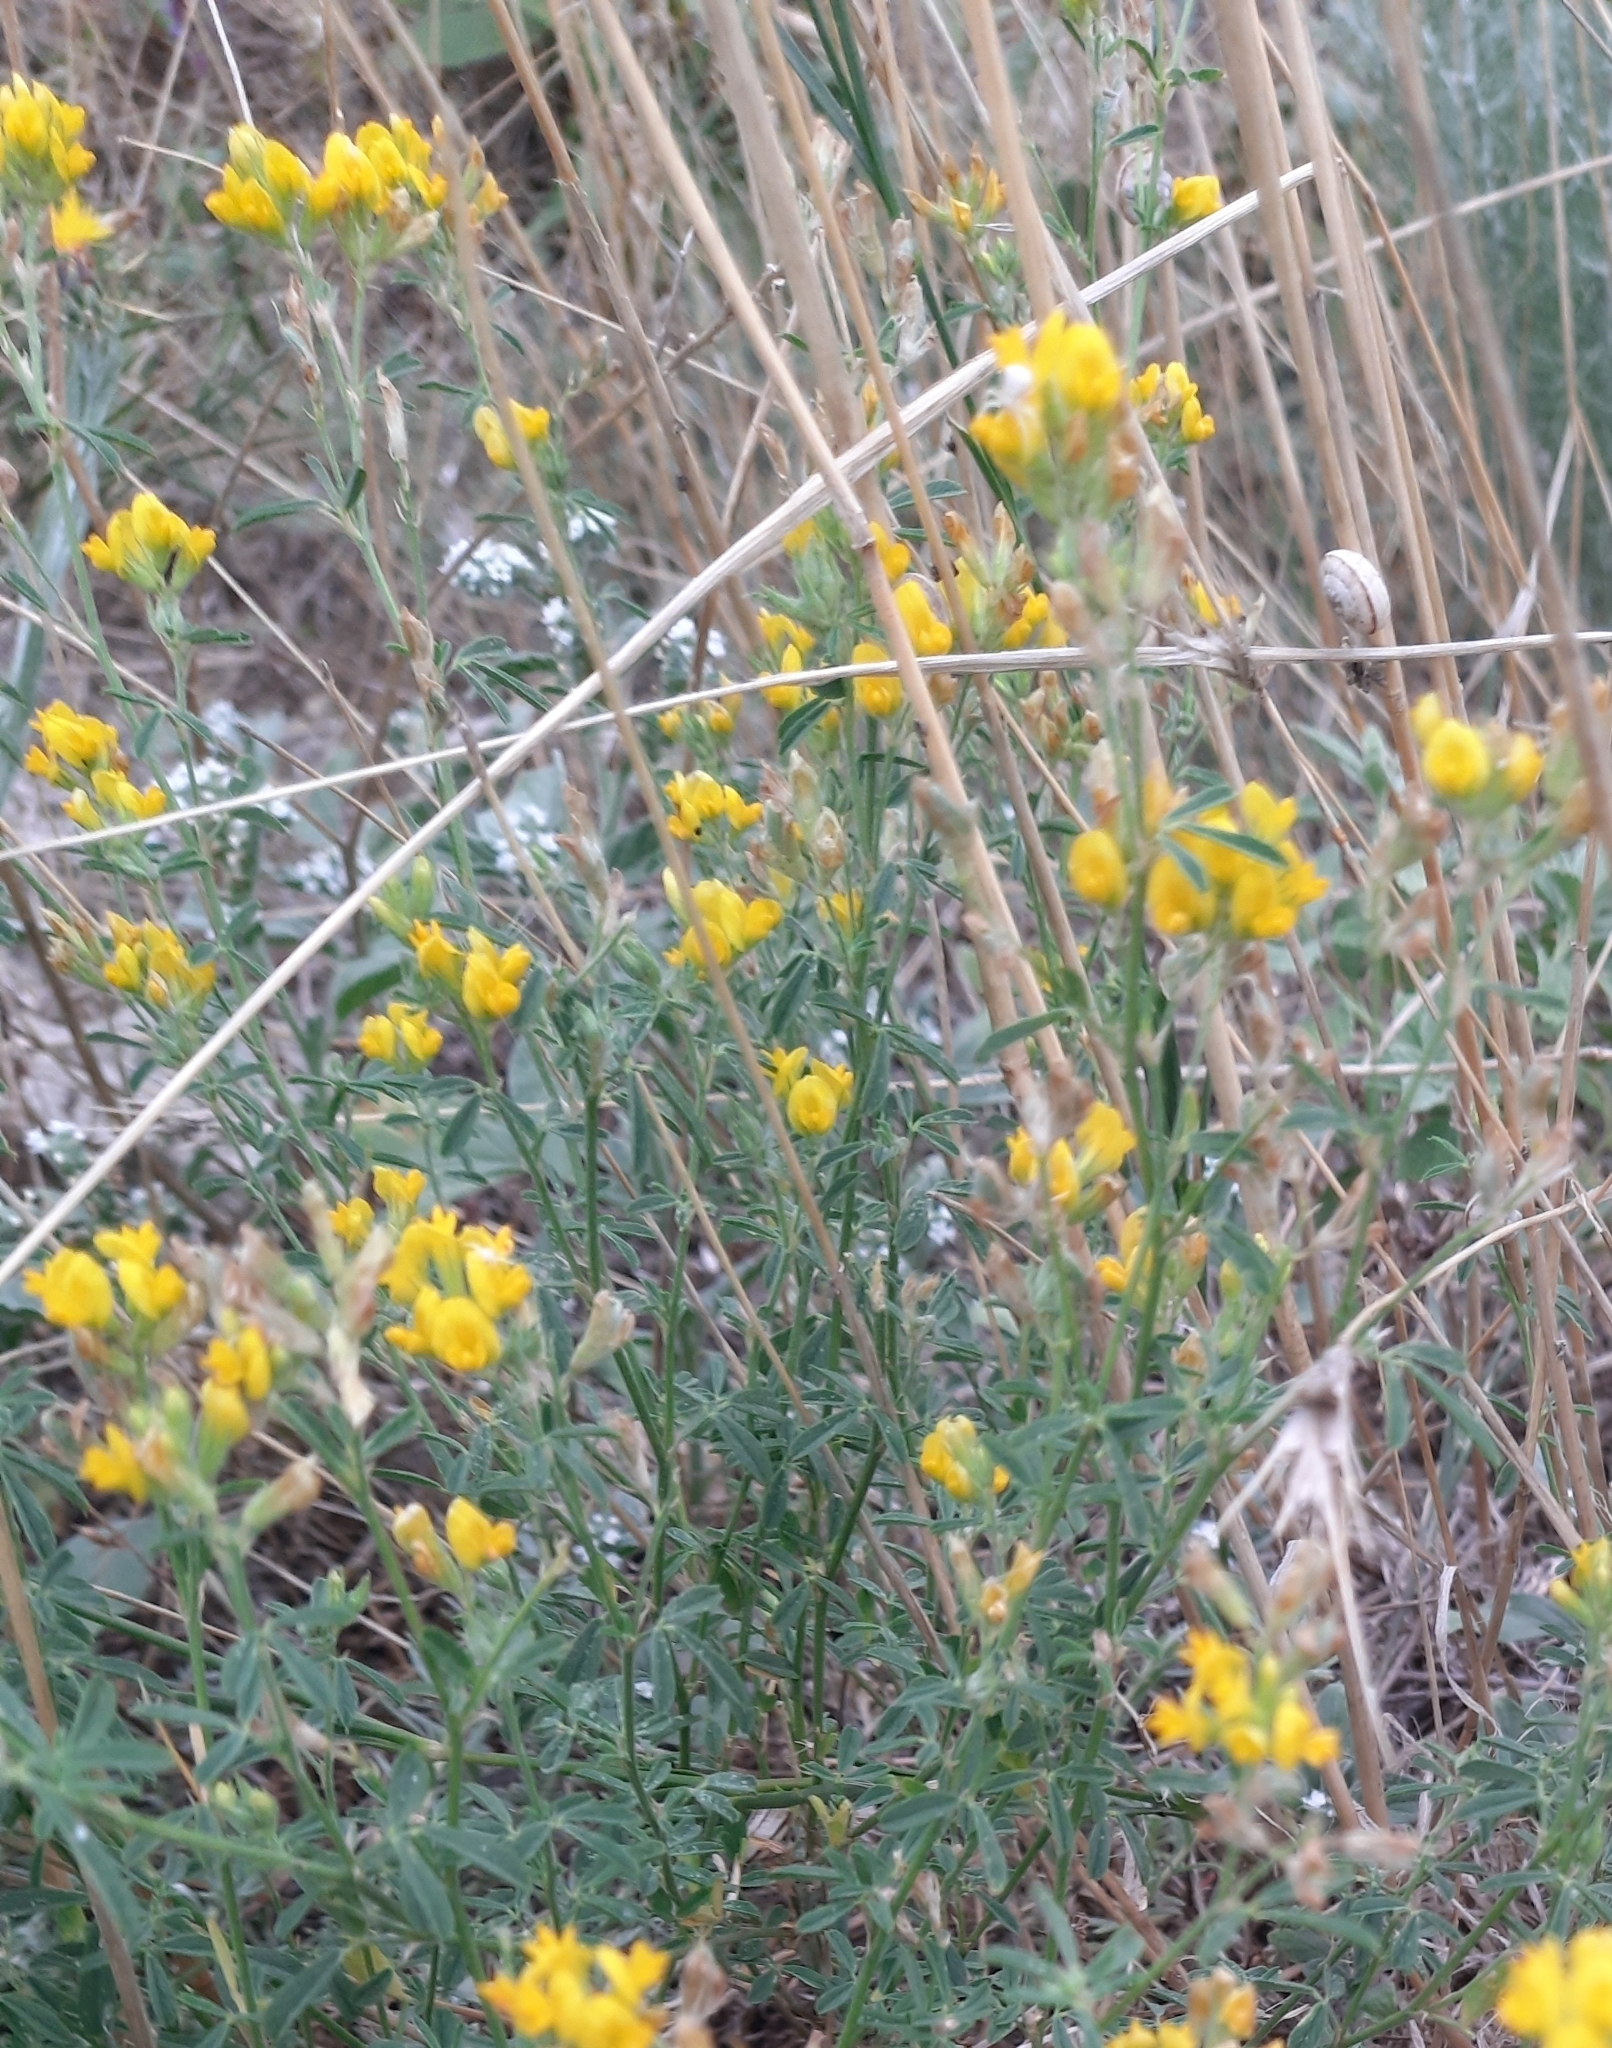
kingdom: Plantae
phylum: Tracheophyta
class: Magnoliopsida
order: Fabales
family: Fabaceae
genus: Medicago
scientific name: Medicago falcata
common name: Sickle medick
